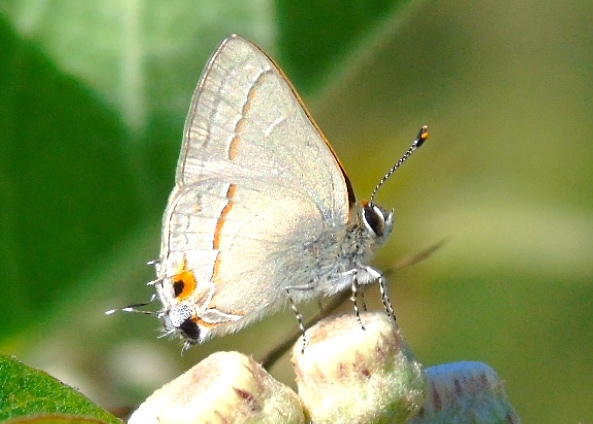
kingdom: Animalia
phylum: Arthropoda
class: Insecta
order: Lepidoptera
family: Lycaenidae
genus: Thecla
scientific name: Thecla joya
